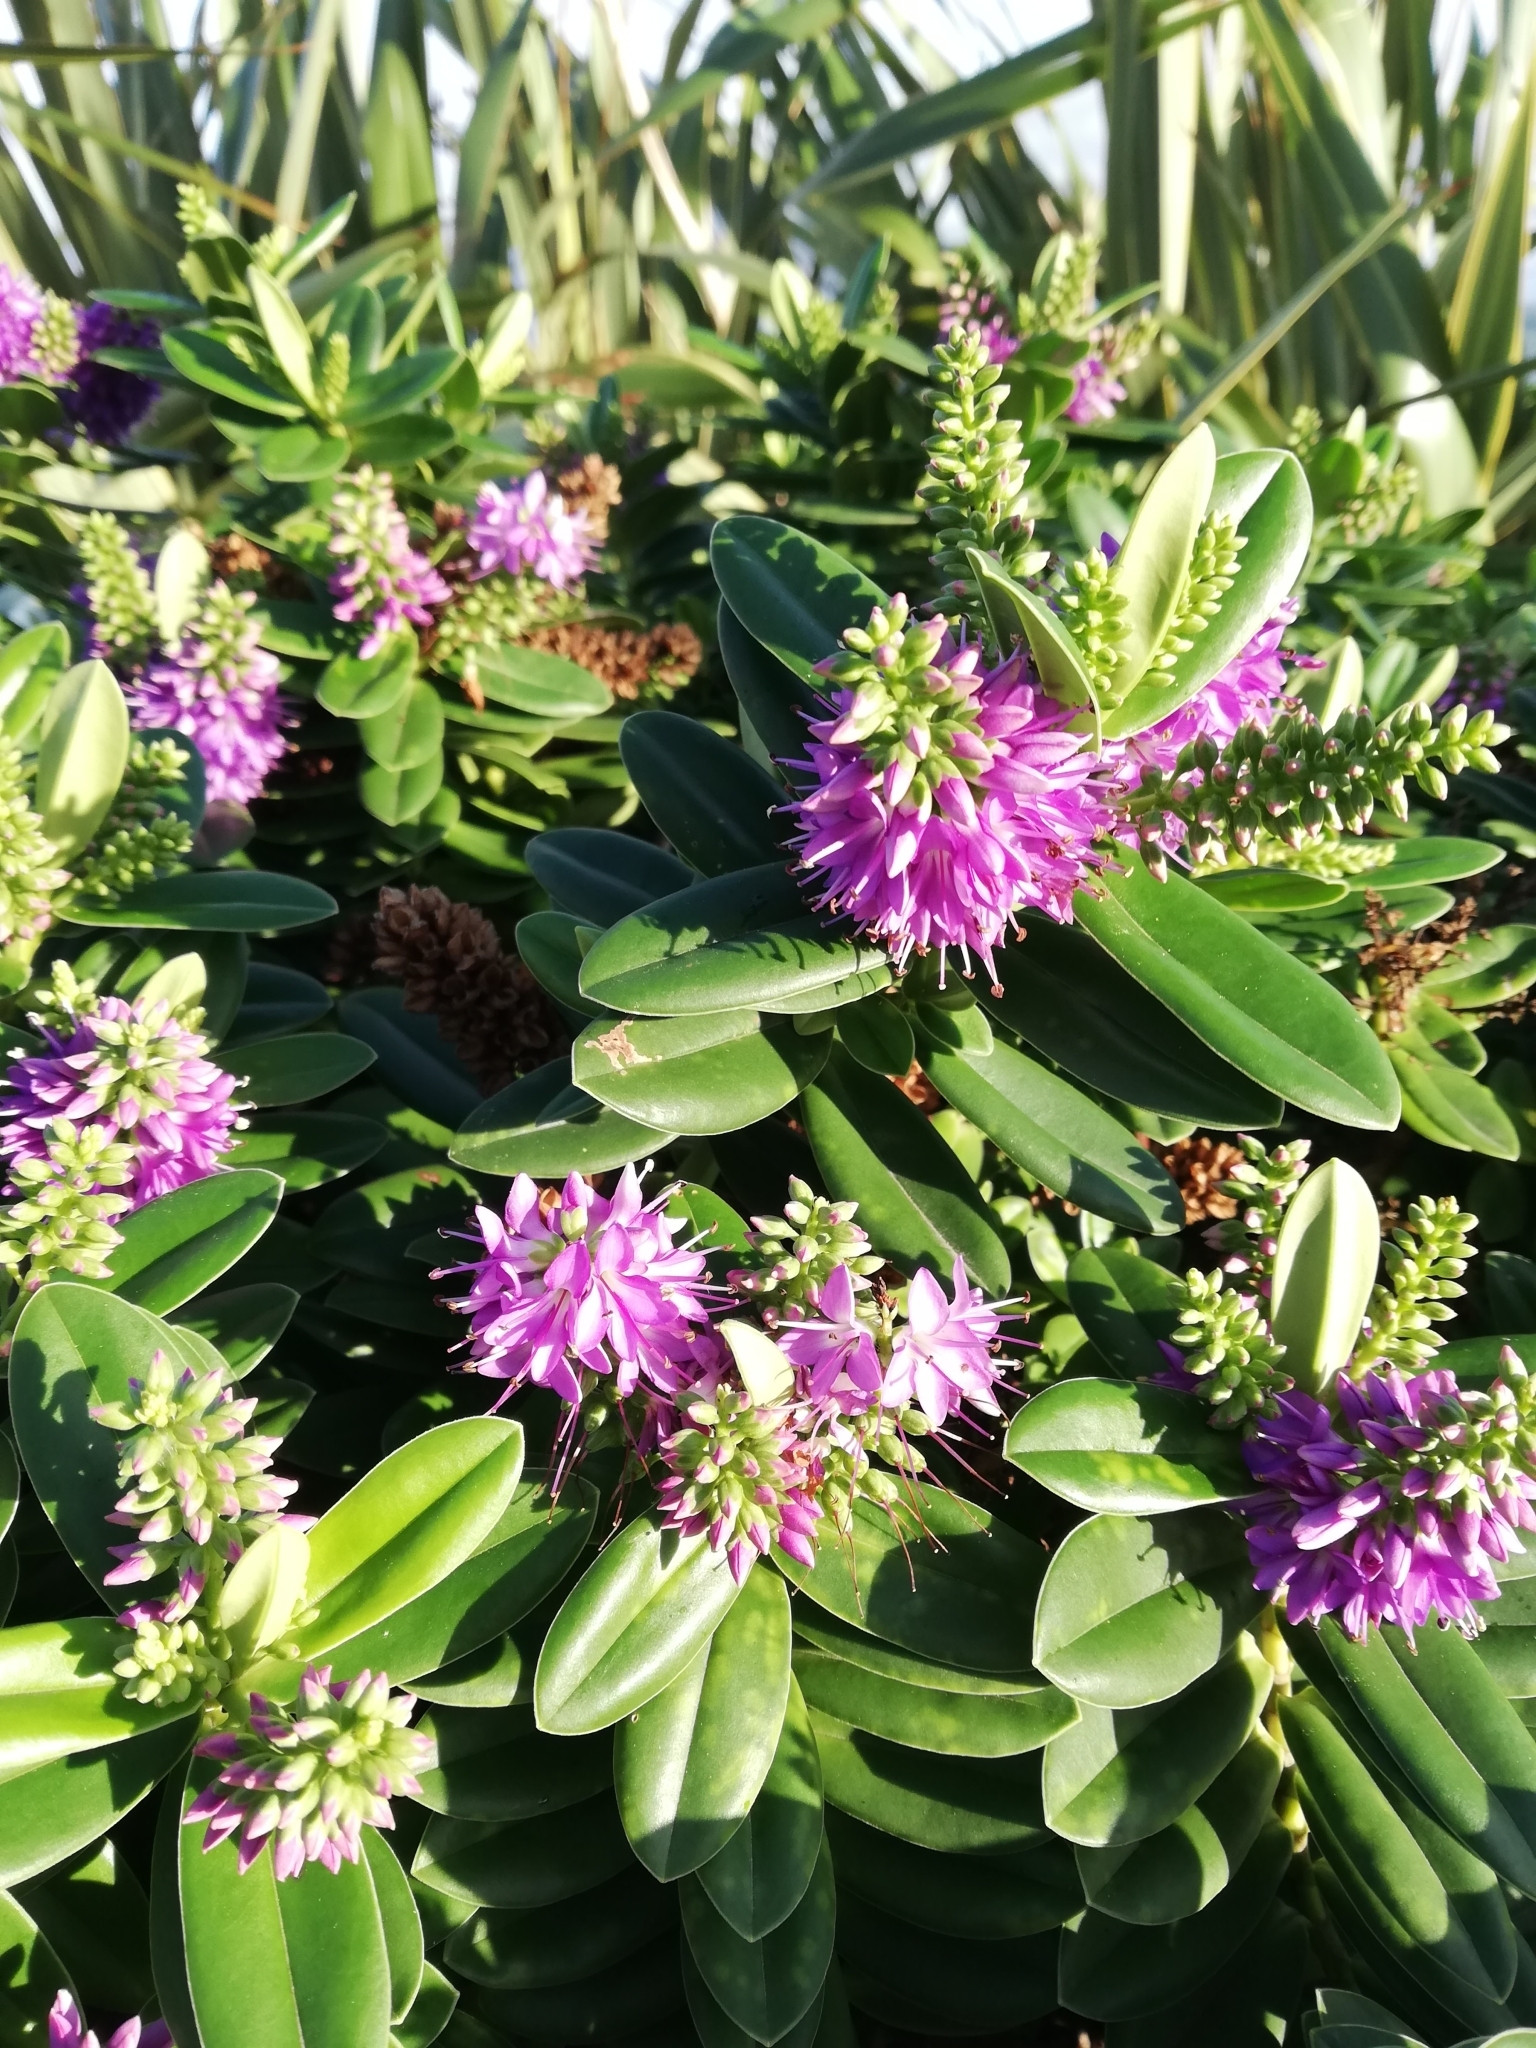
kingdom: Plantae
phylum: Tracheophyta
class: Magnoliopsida
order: Lamiales
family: Plantaginaceae
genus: Veronica
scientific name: Veronica franciscana
